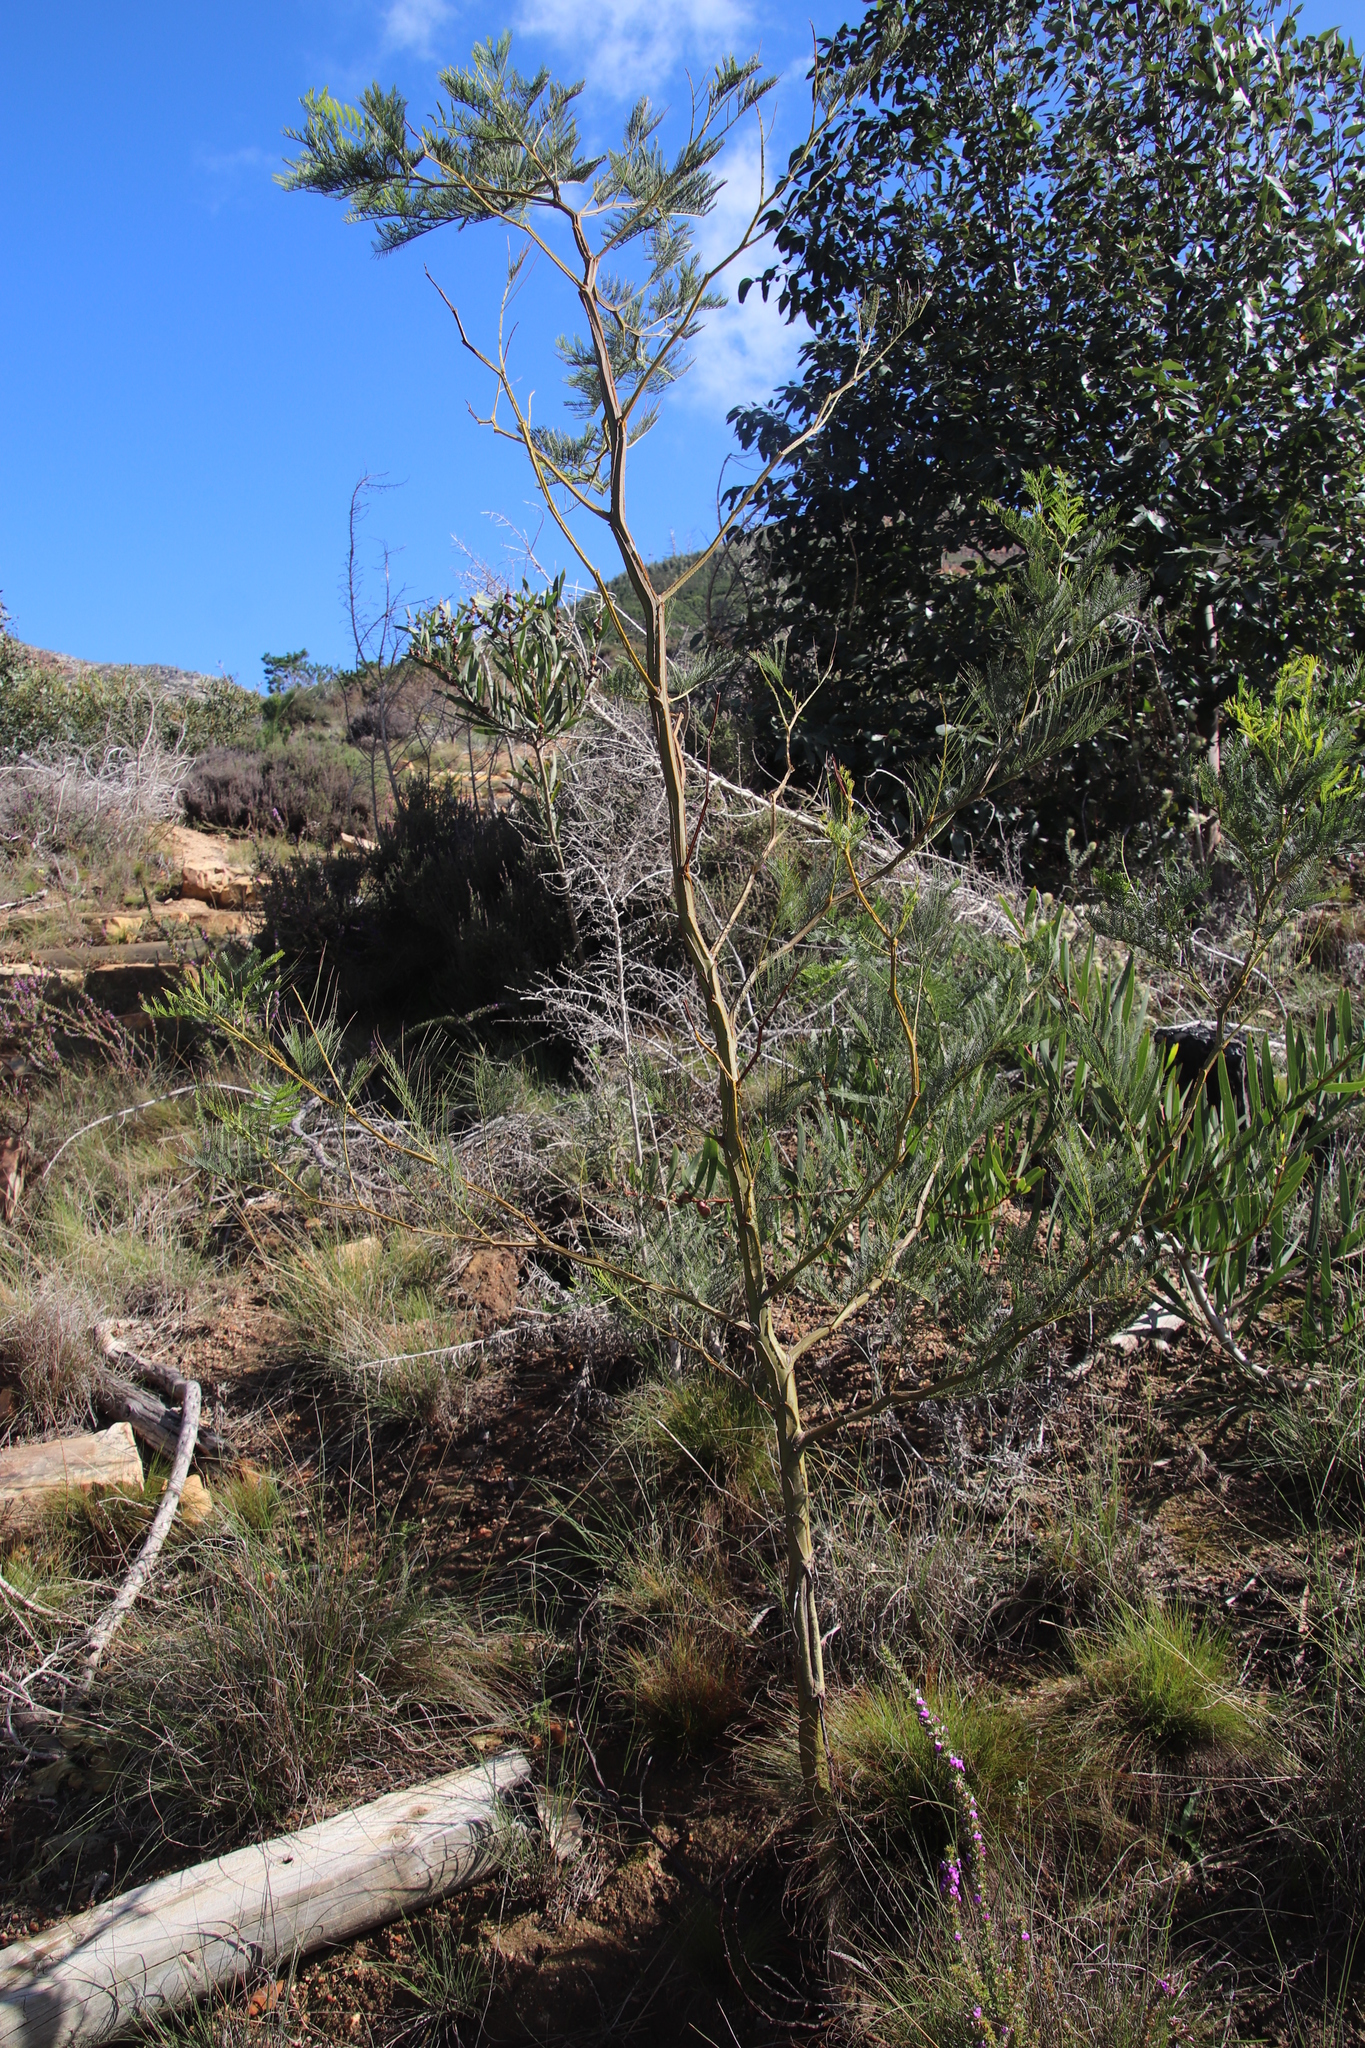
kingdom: Plantae
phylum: Tracheophyta
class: Magnoliopsida
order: Fabales
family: Fabaceae
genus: Acacia
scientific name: Acacia decurrens
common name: Green wattle
